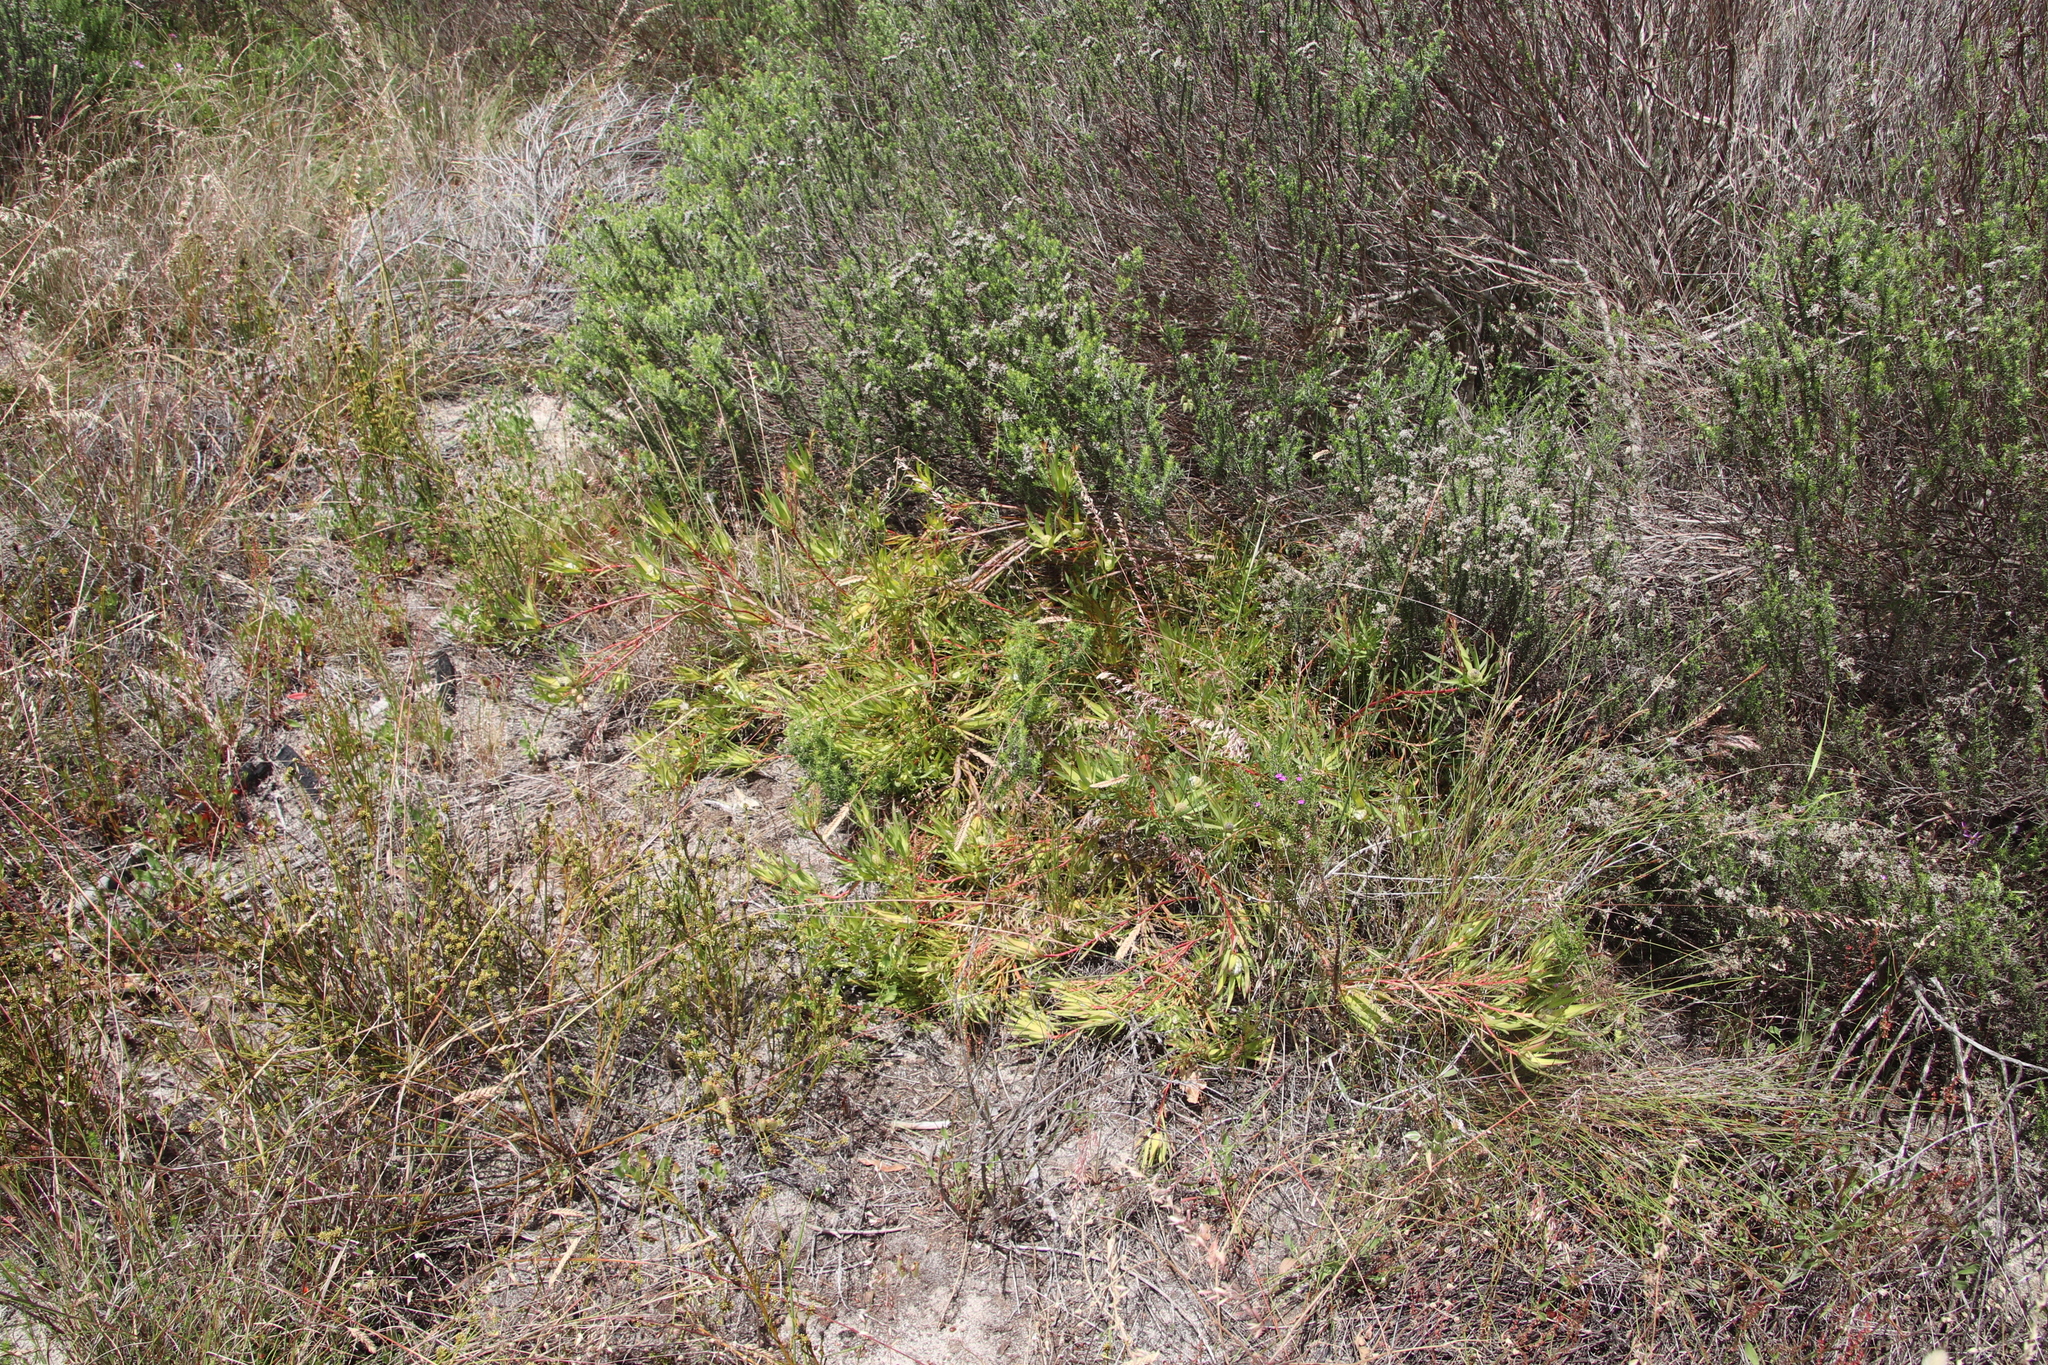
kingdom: Plantae
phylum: Tracheophyta
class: Magnoliopsida
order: Proteales
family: Proteaceae
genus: Leucadendron
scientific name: Leucadendron salignum
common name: Common sunshine conebush
